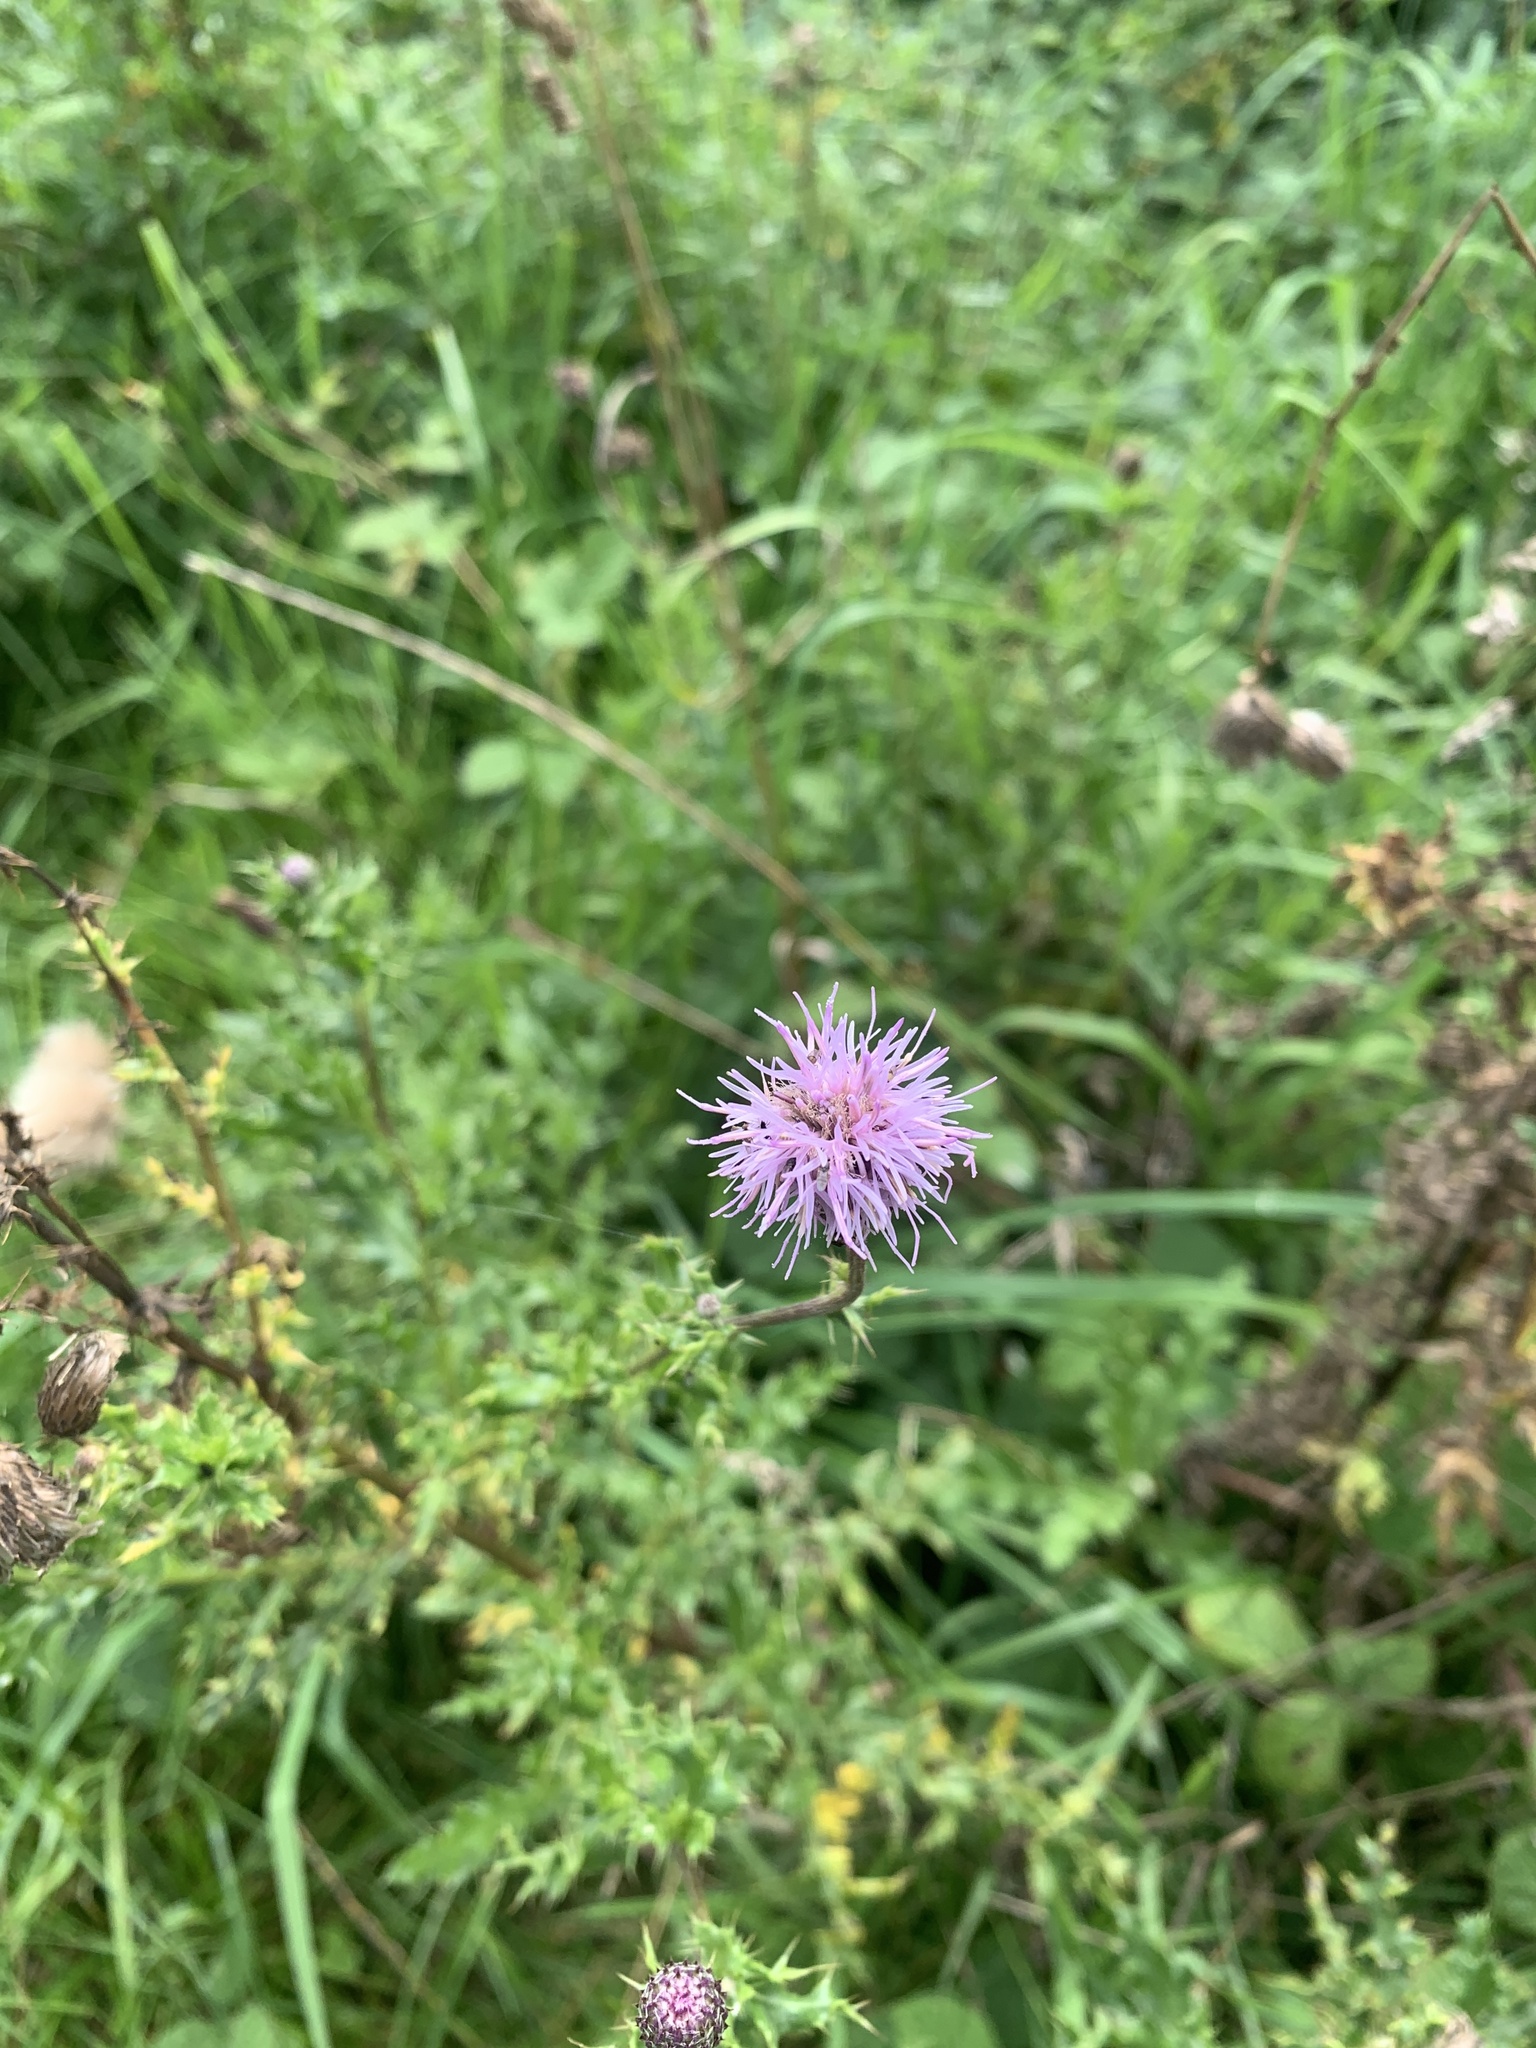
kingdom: Plantae
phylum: Tracheophyta
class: Magnoliopsida
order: Asterales
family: Asteraceae
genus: Cirsium
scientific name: Cirsium arvense
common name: Creeping thistle
